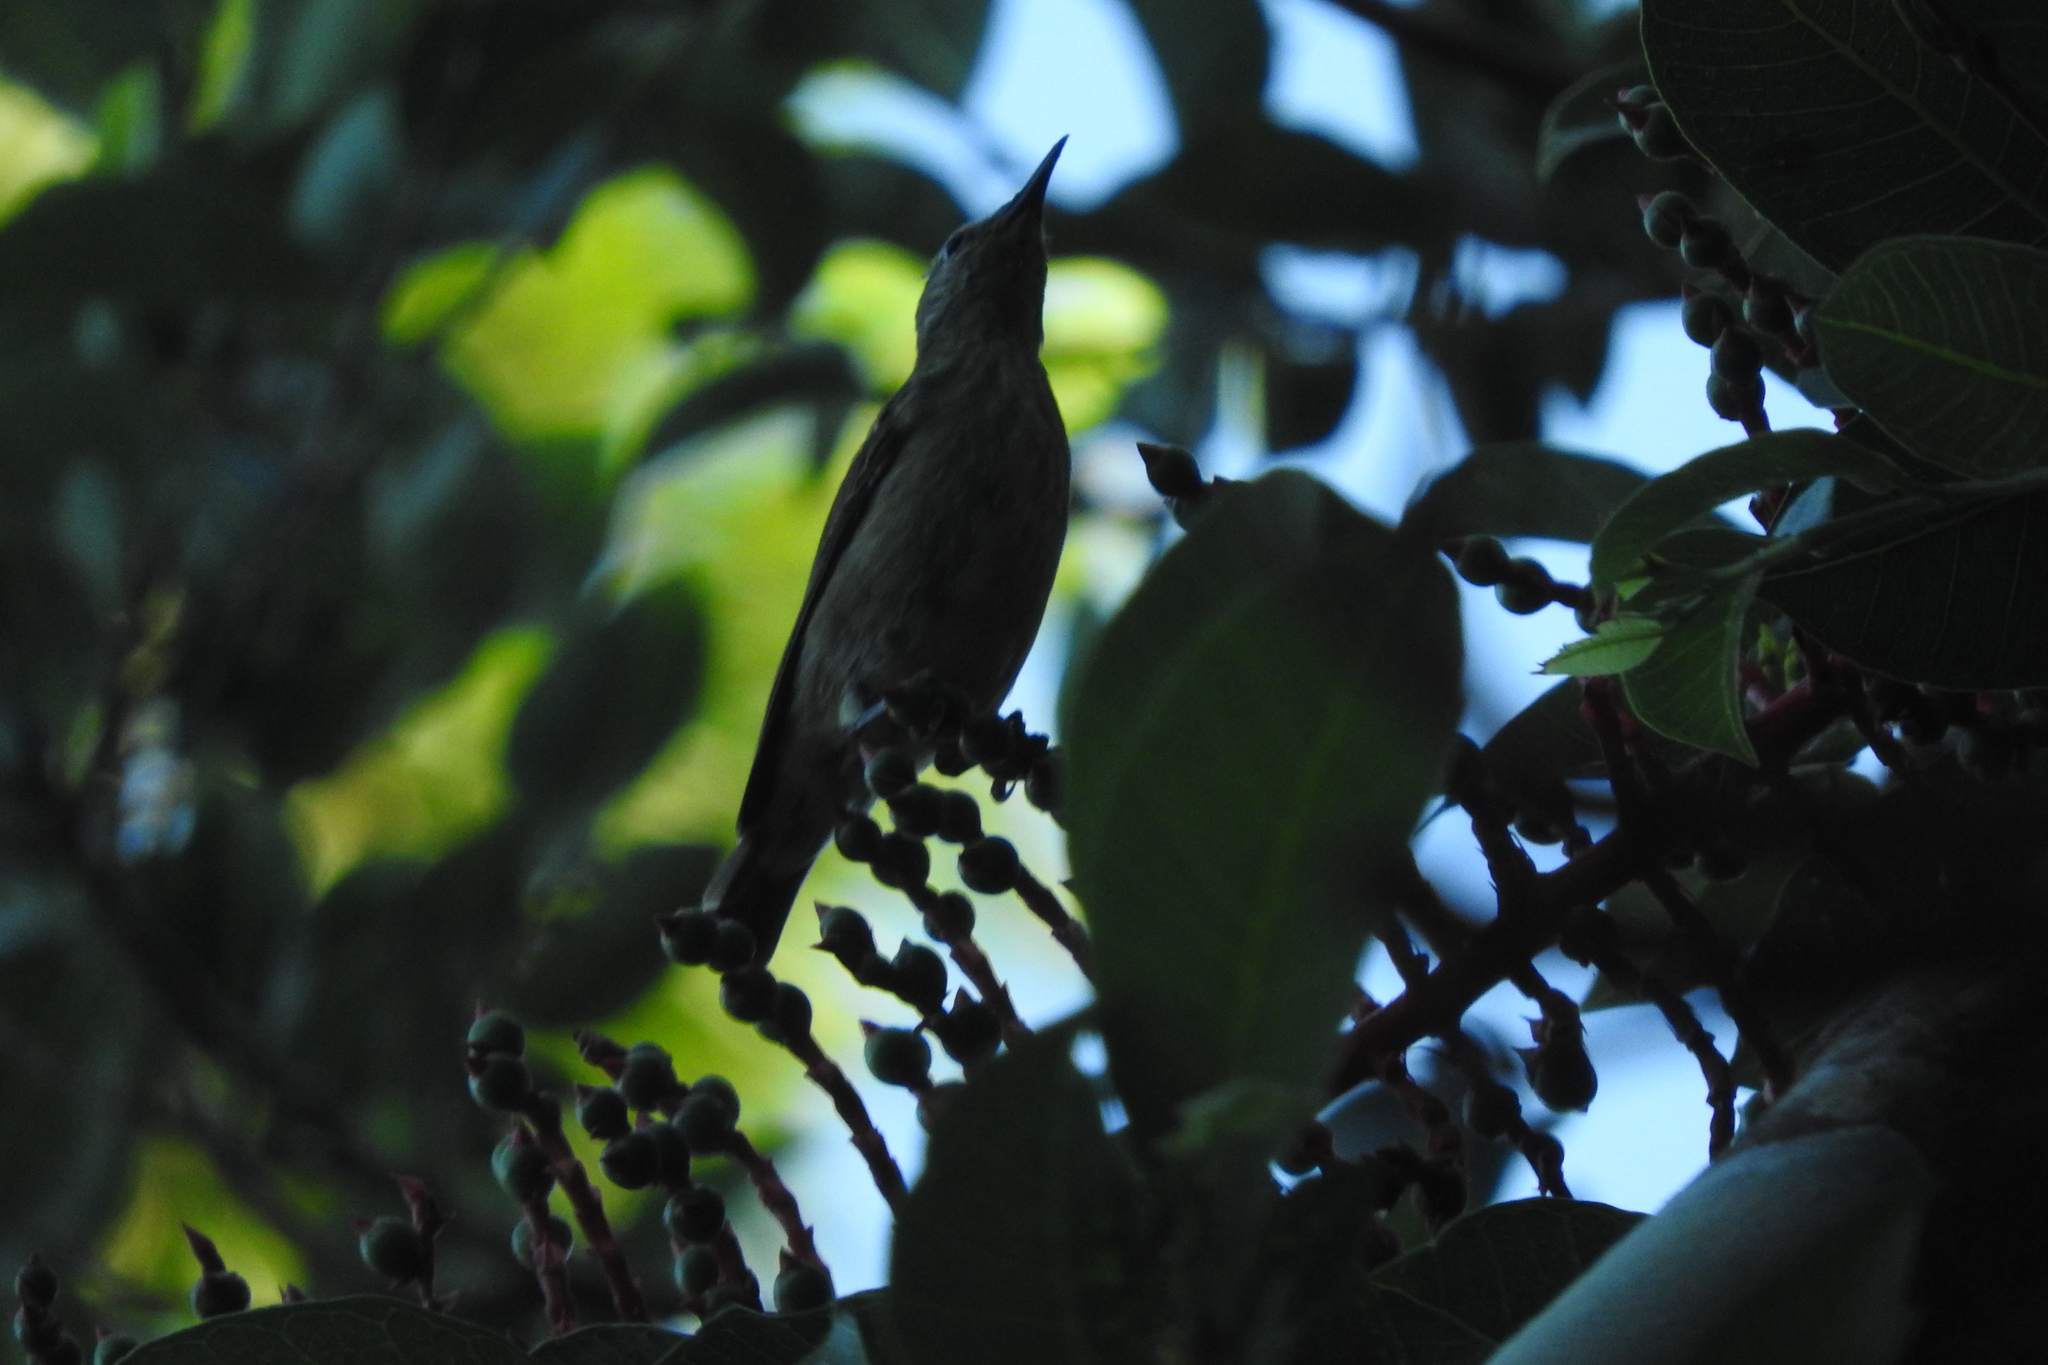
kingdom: Animalia
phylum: Chordata
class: Aves
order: Passeriformes
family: Thraupidae
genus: Cyanerpes
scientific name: Cyanerpes cyaneus
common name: Red-legged honeycreeper
